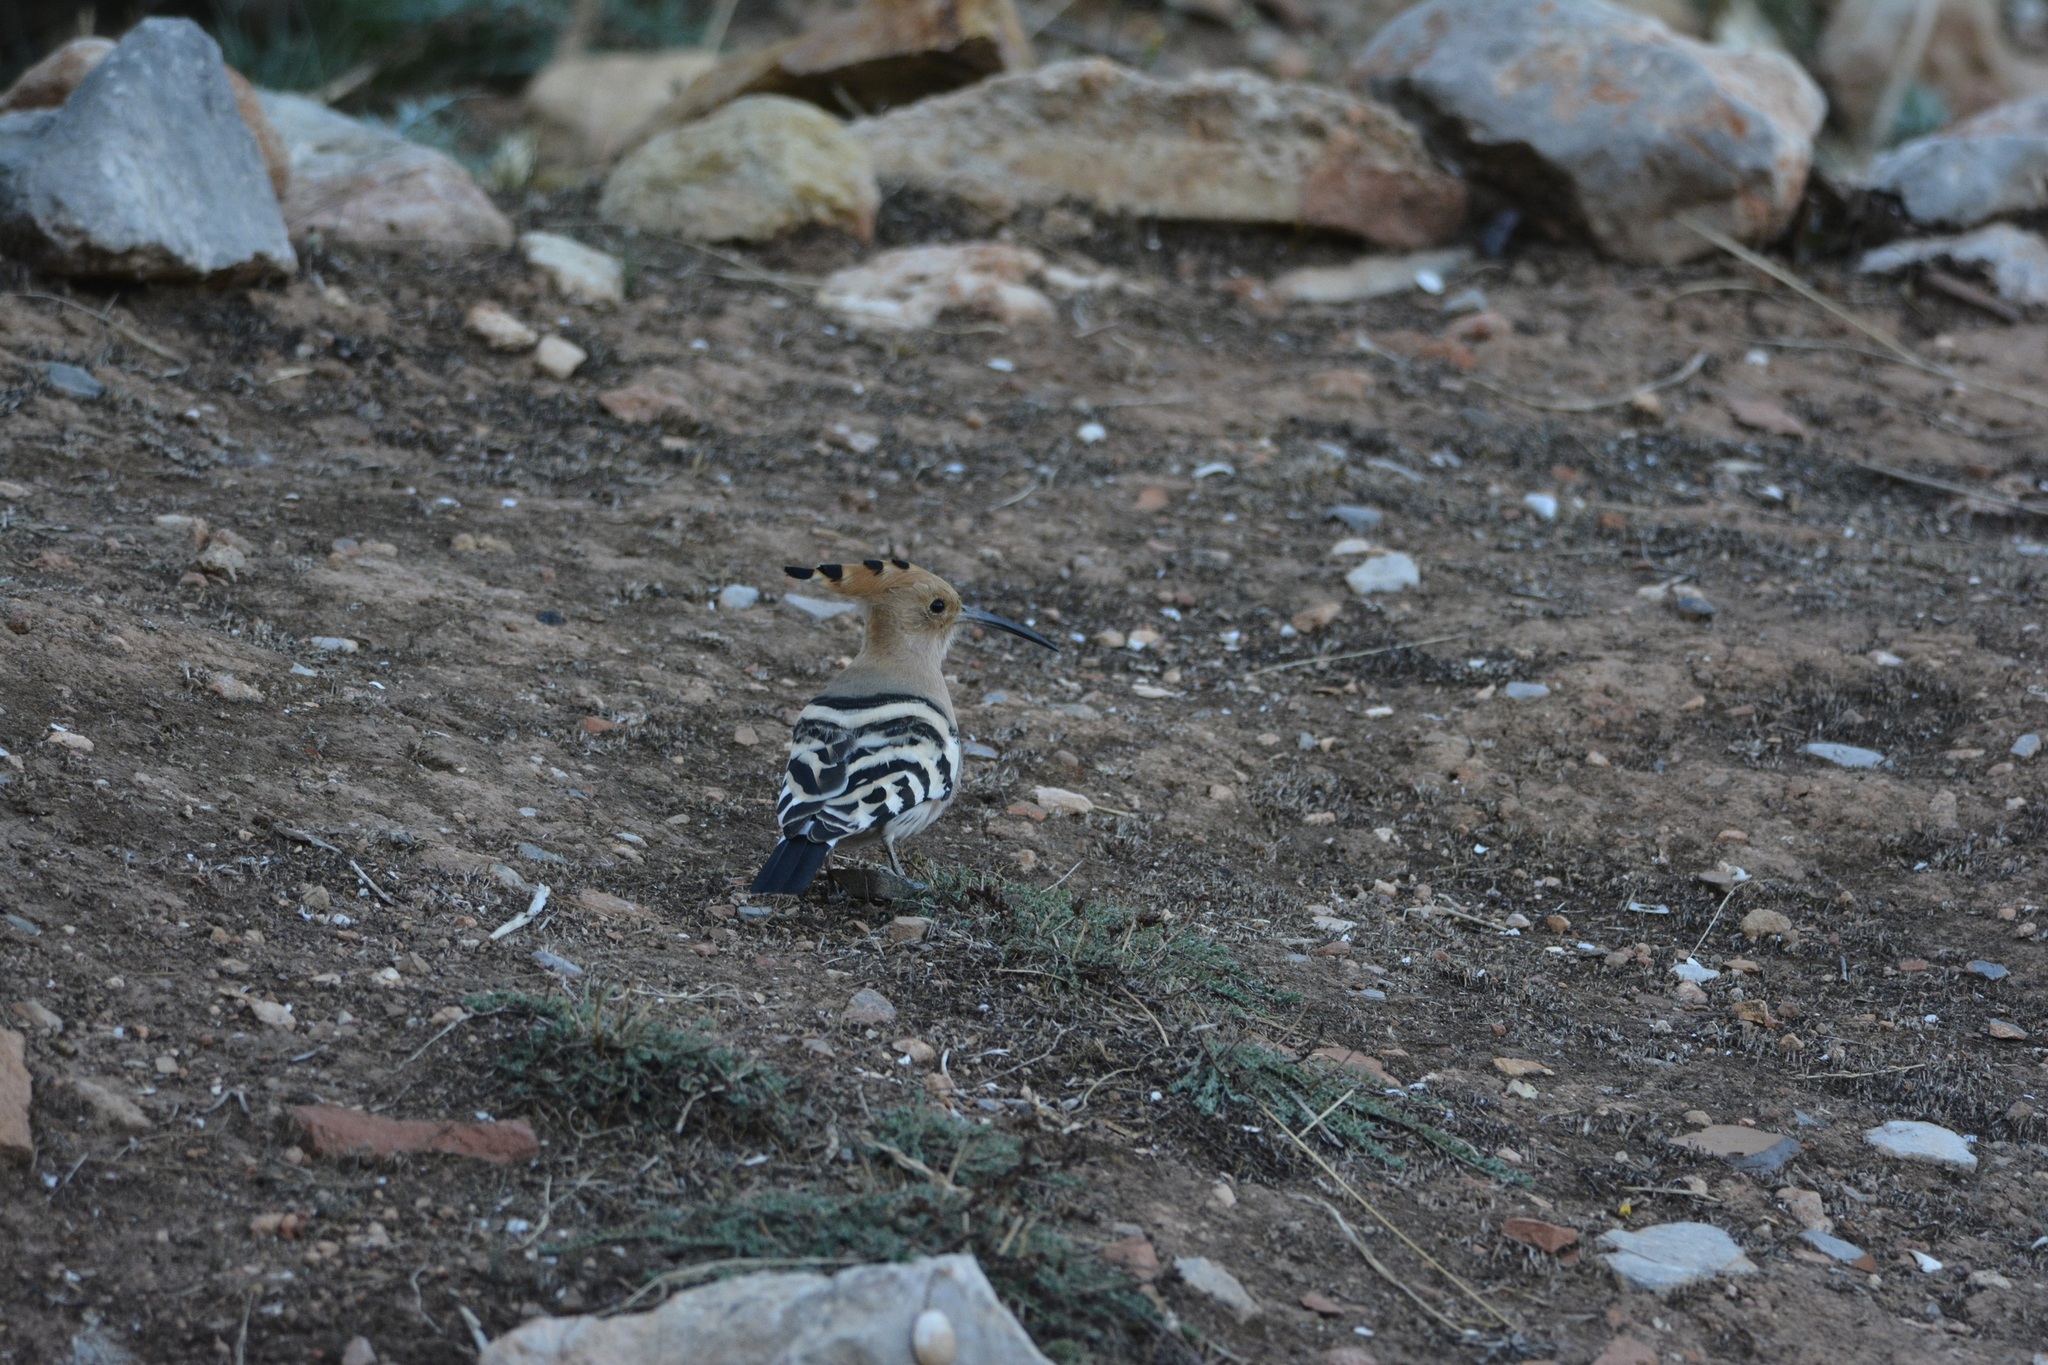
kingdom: Animalia
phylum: Chordata
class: Aves
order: Bucerotiformes
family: Upupidae
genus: Upupa
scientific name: Upupa epops
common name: Eurasian hoopoe
